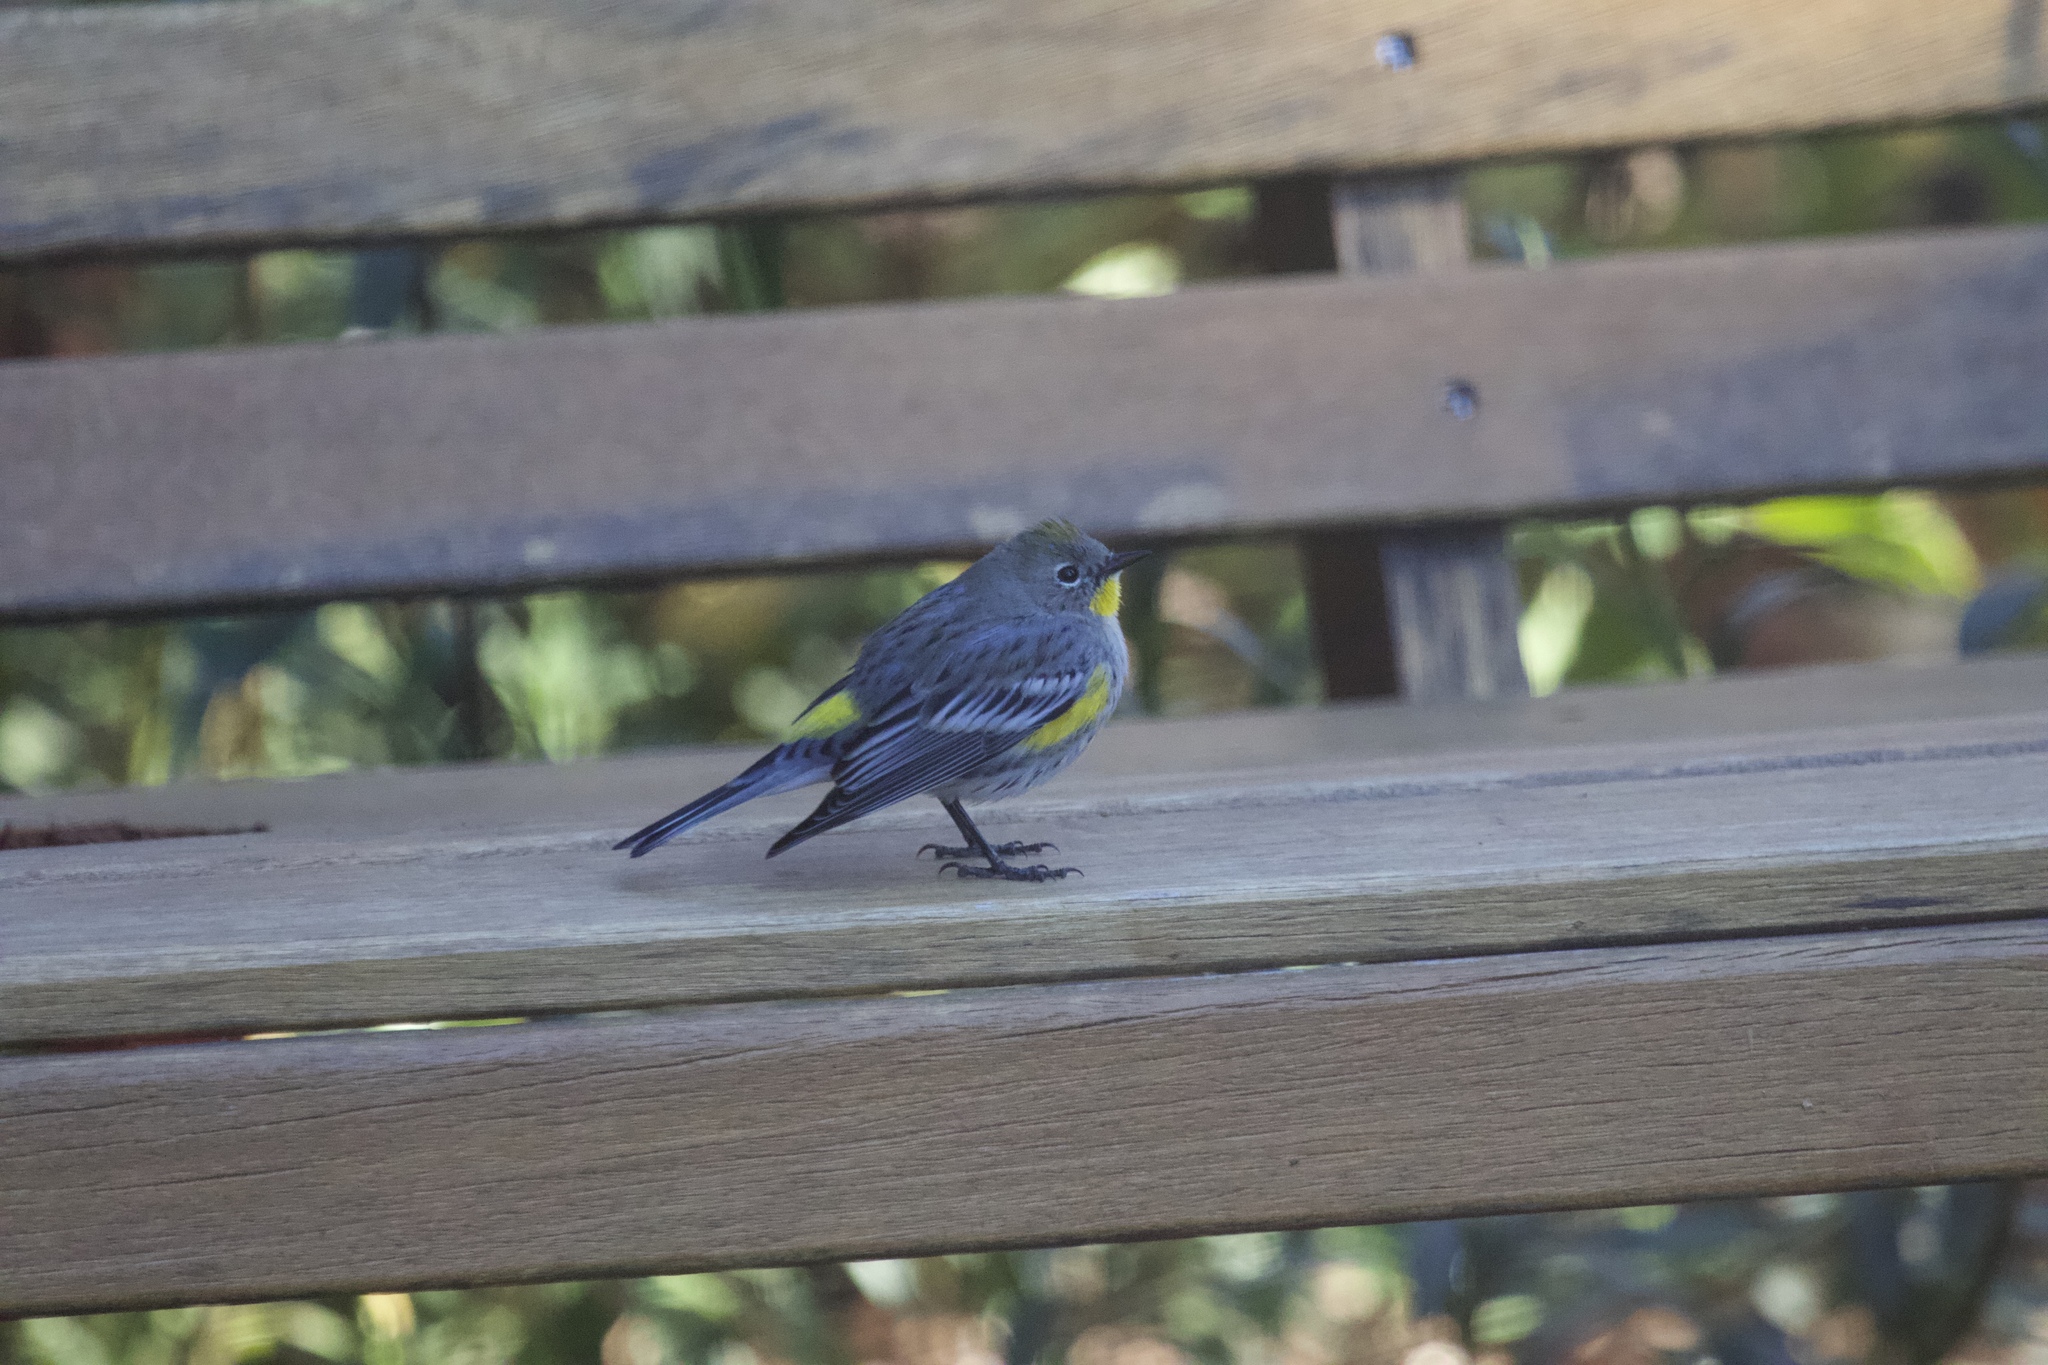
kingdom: Animalia
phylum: Chordata
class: Aves
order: Passeriformes
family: Parulidae
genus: Setophaga
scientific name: Setophaga coronata
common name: Myrtle warbler
